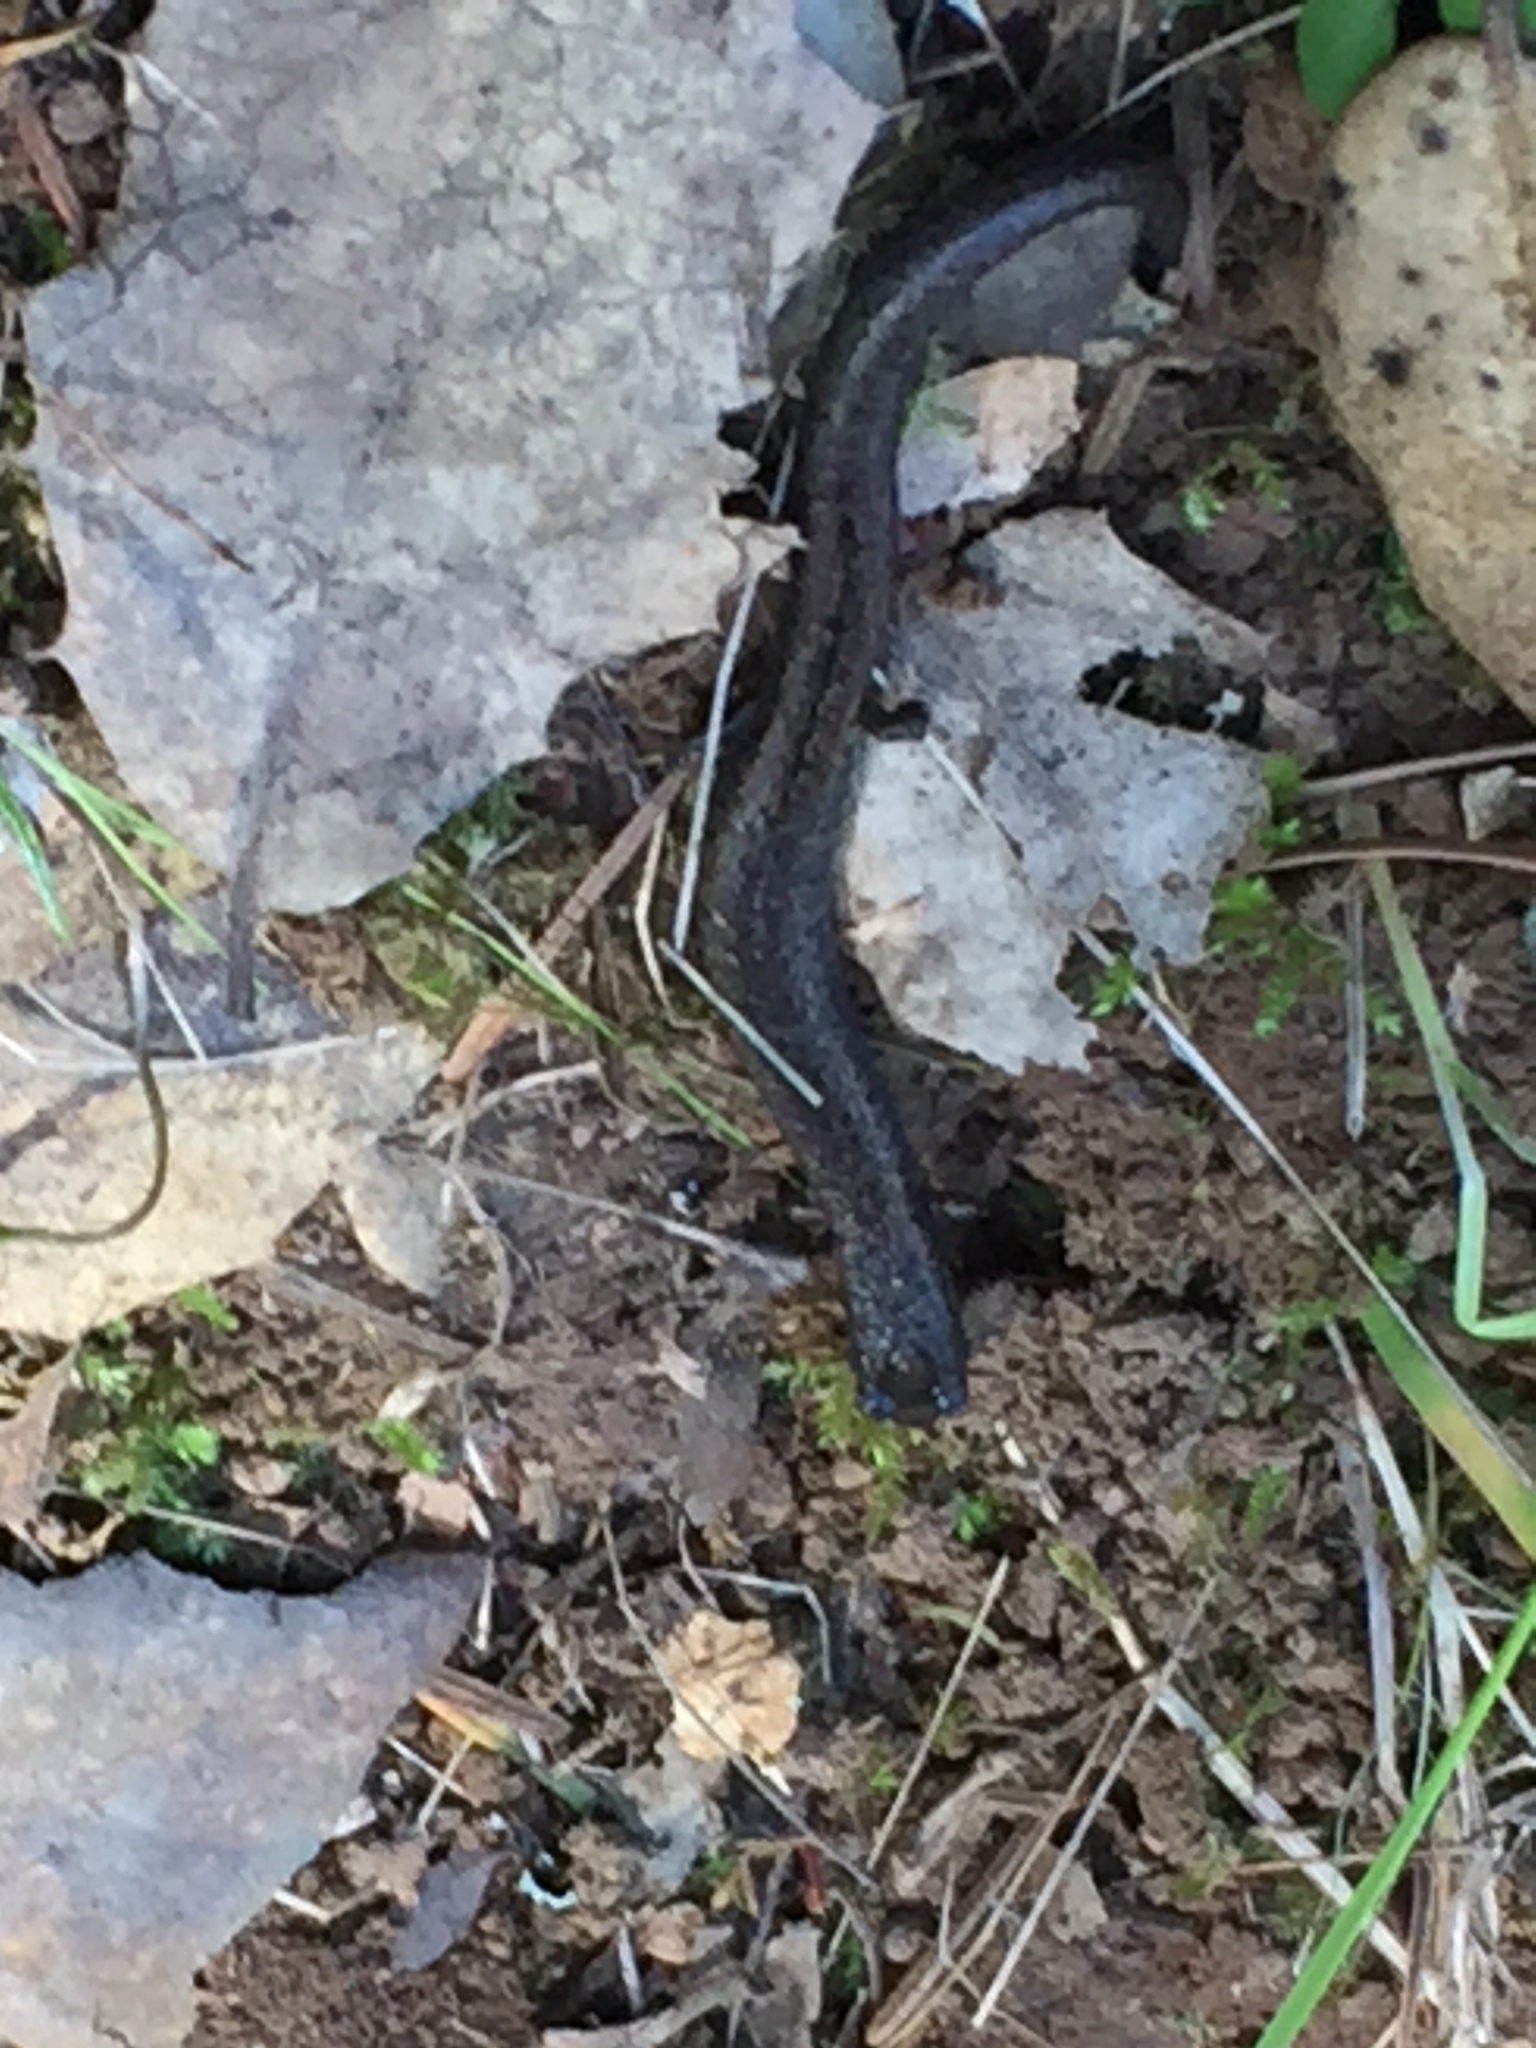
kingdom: Animalia
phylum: Chordata
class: Amphibia
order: Caudata
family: Plethodontidae
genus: Batrachoseps
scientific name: Batrachoseps attenuatus
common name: California slender salamander
